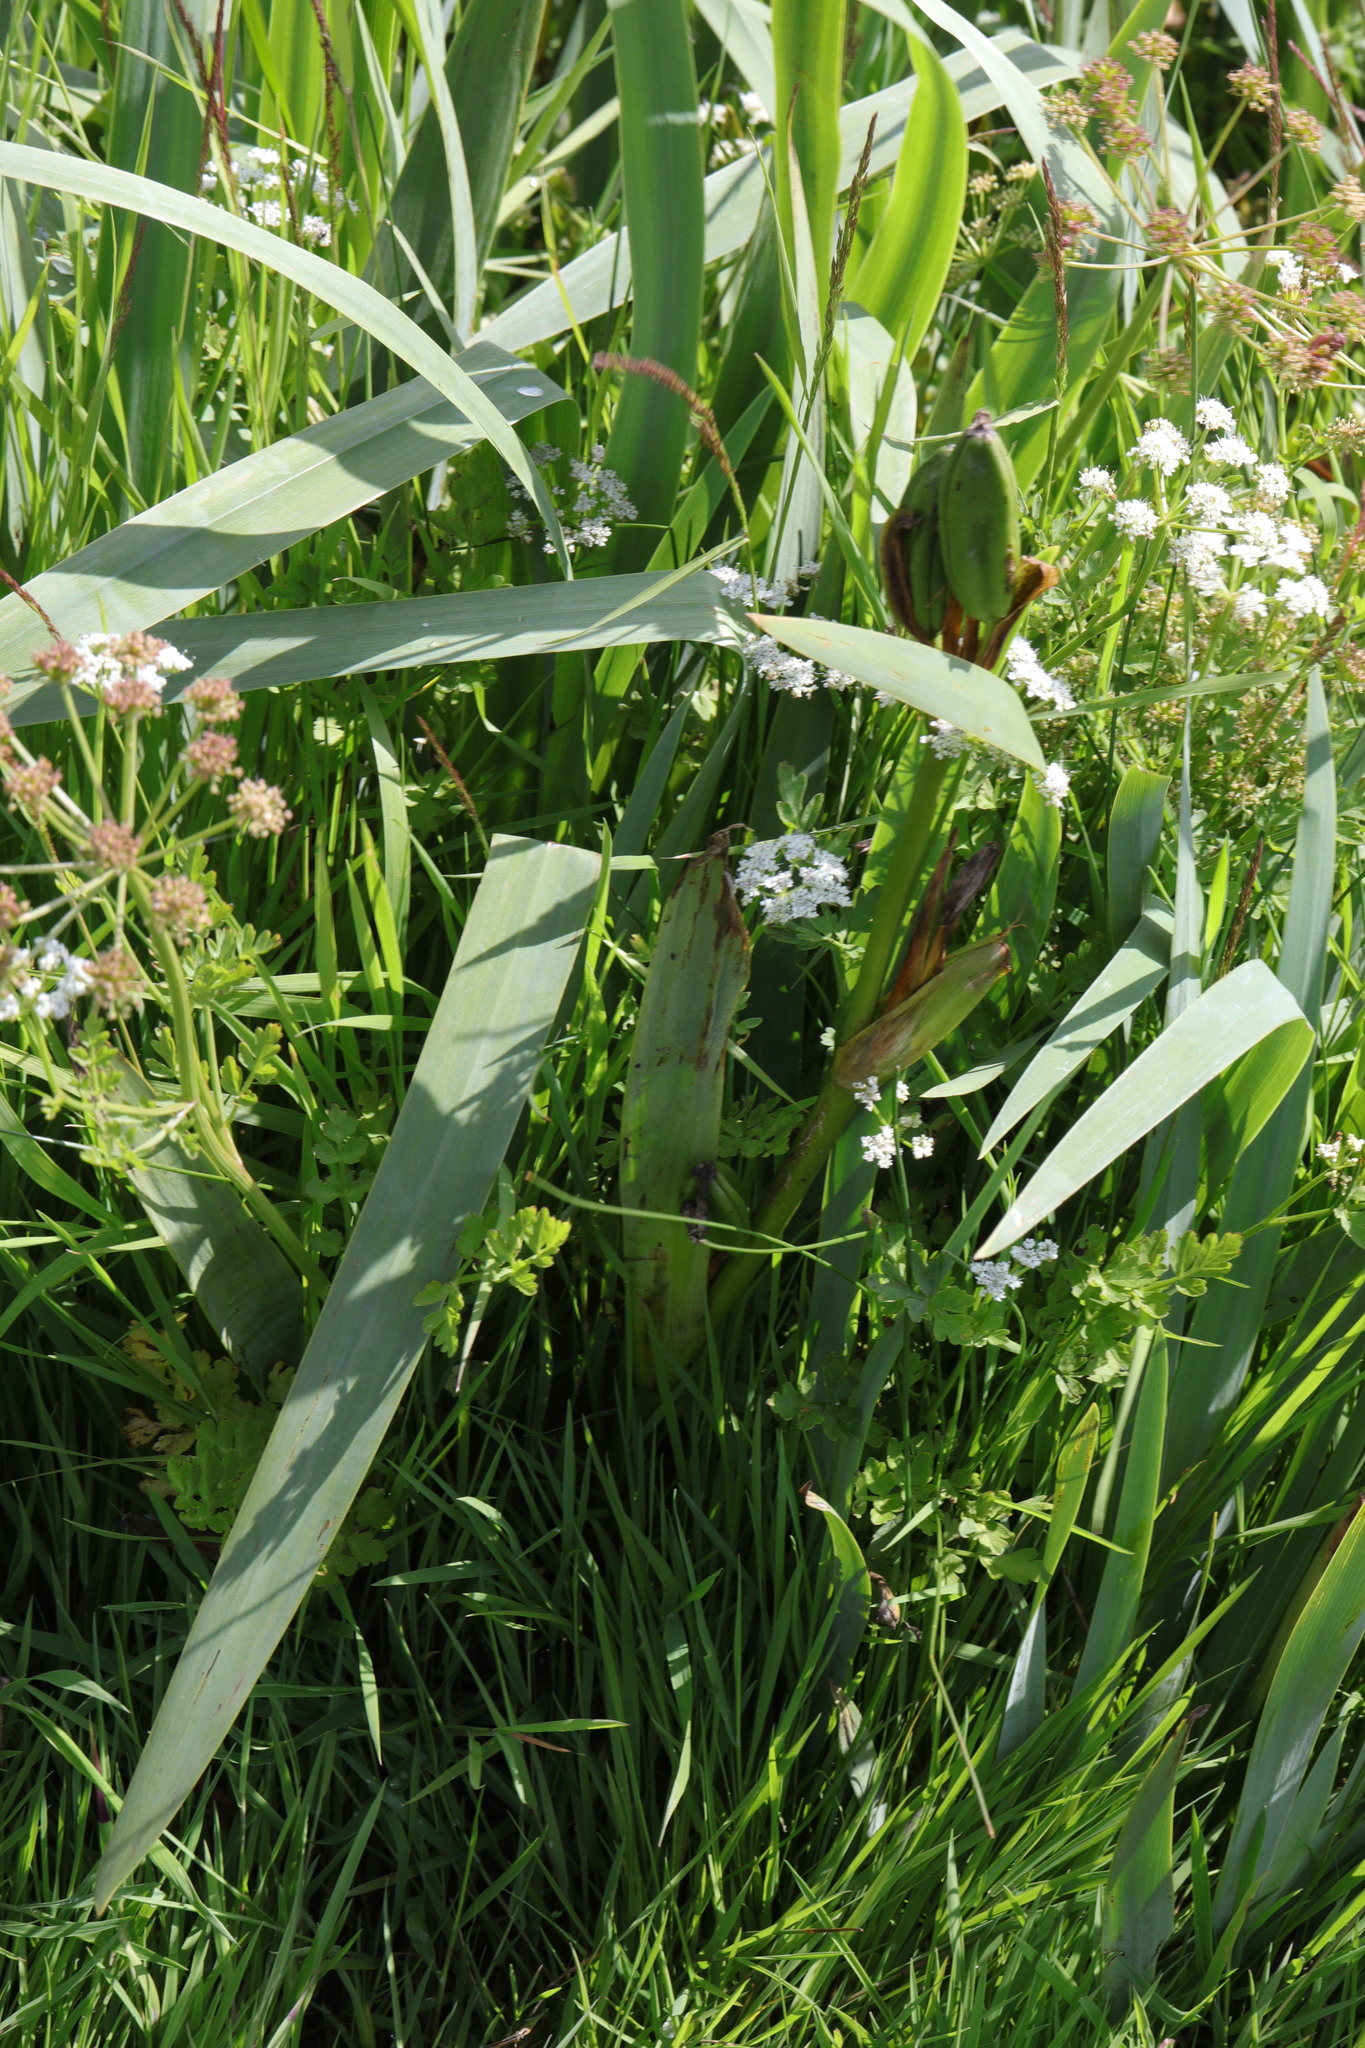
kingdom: Plantae
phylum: Tracheophyta
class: Liliopsida
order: Asparagales
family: Iridaceae
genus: Iris
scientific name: Iris pseudacorus
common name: Yellow flag
